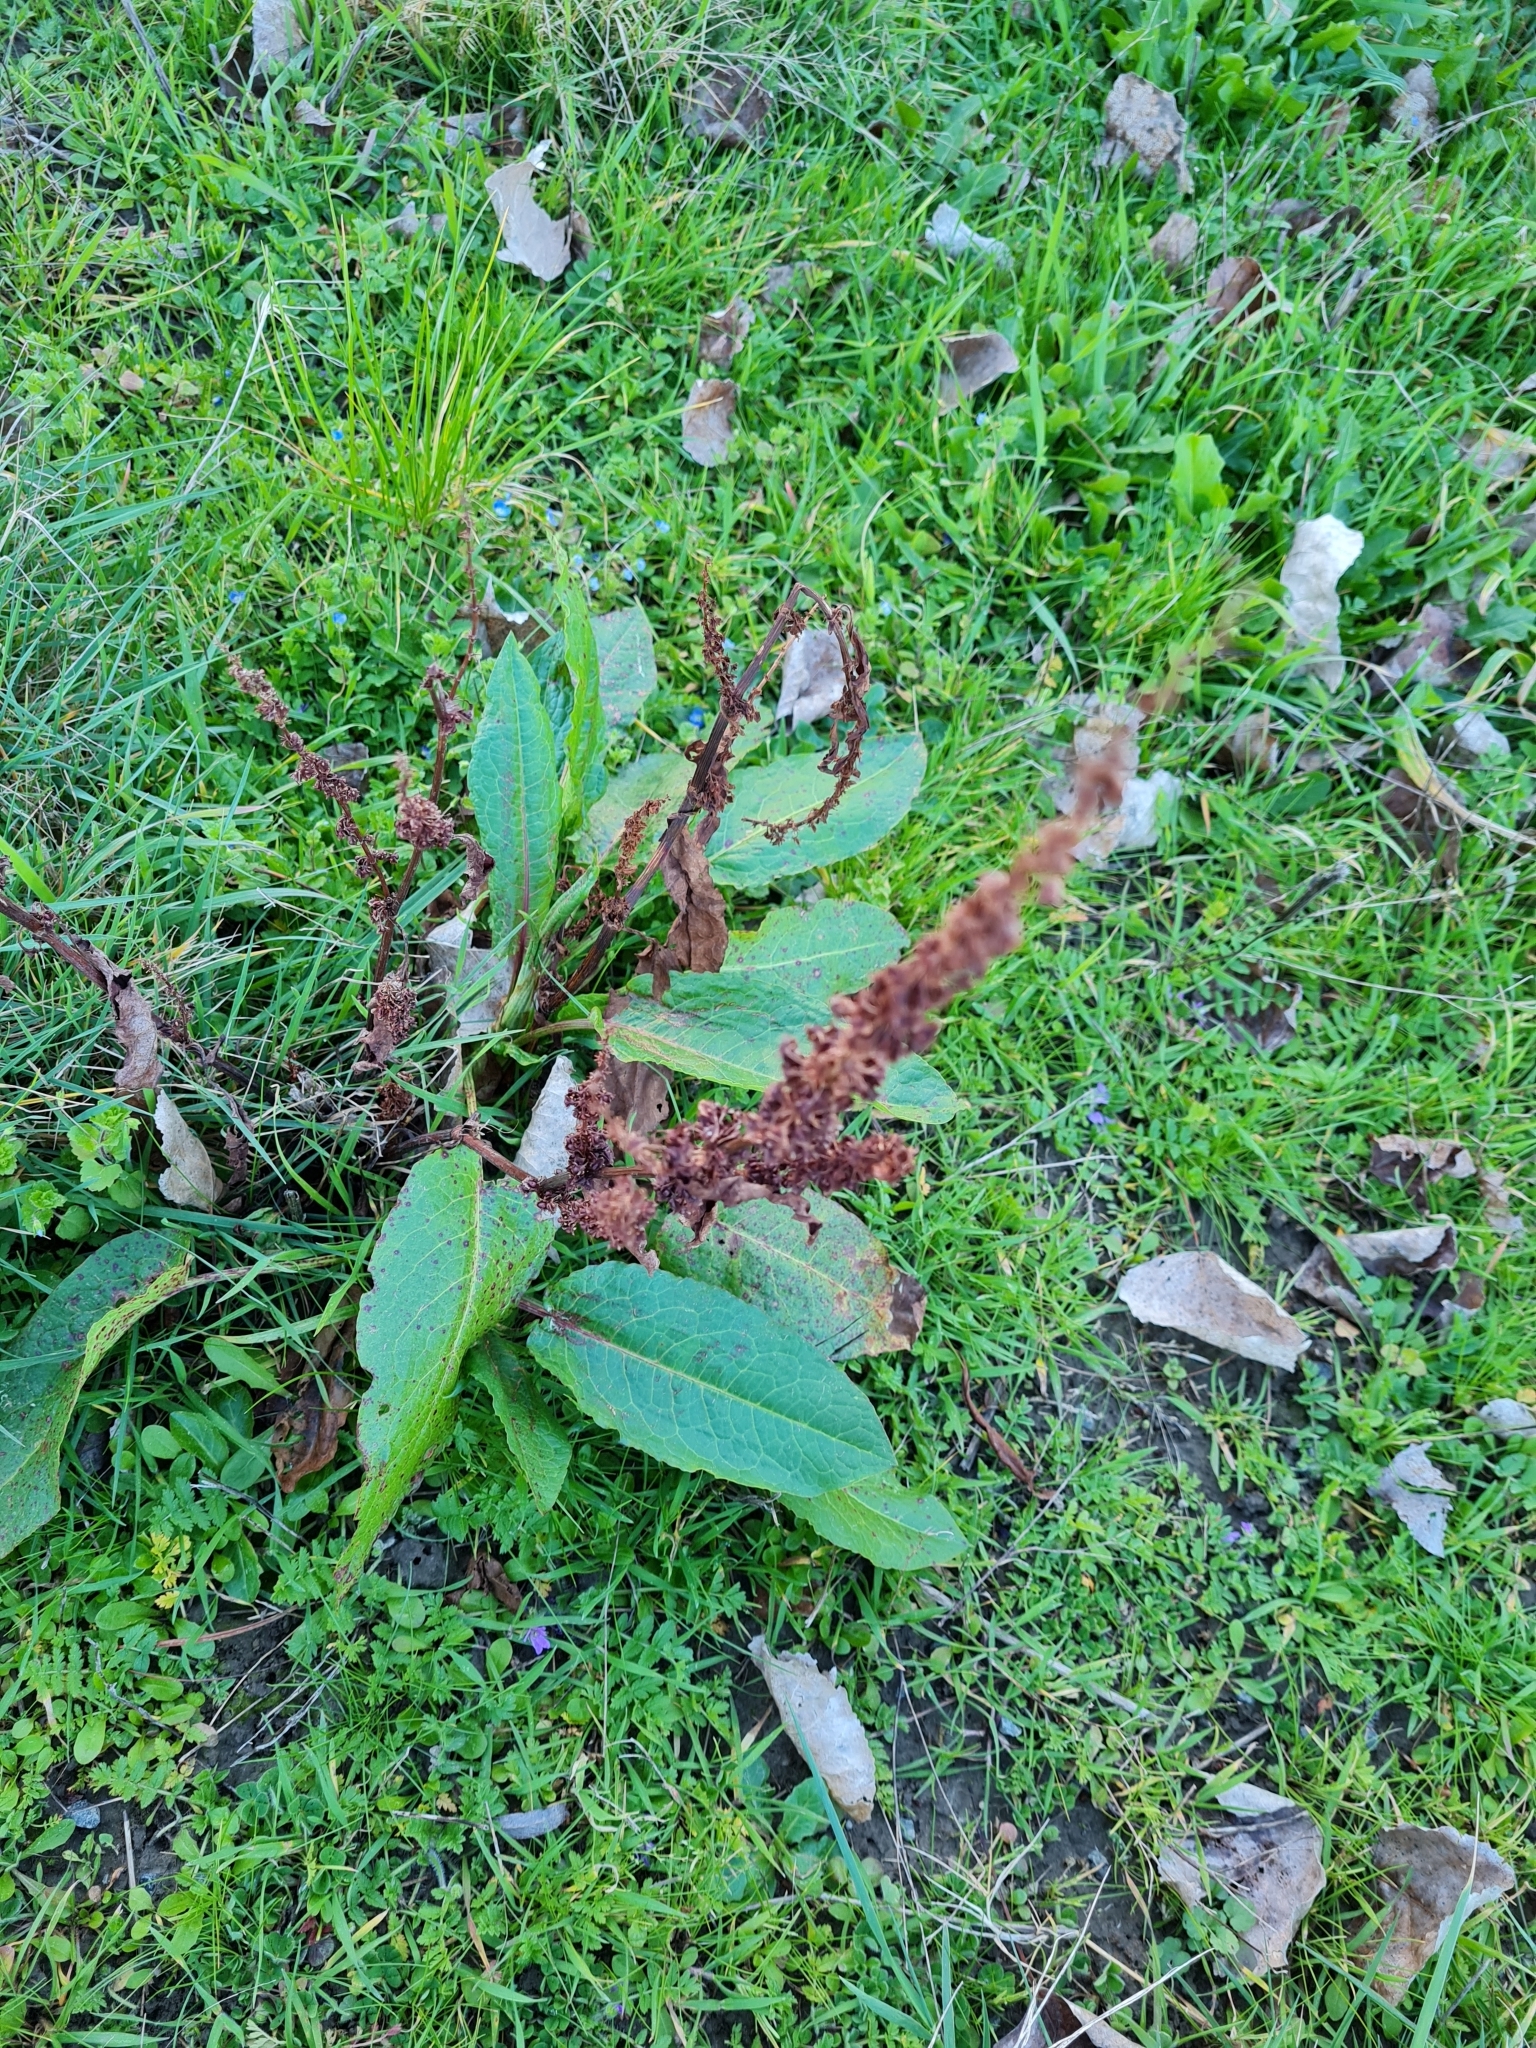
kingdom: Plantae
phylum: Tracheophyta
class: Magnoliopsida
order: Caryophyllales
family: Polygonaceae
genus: Rumex
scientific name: Rumex obtusifolius
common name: Bitter dock
